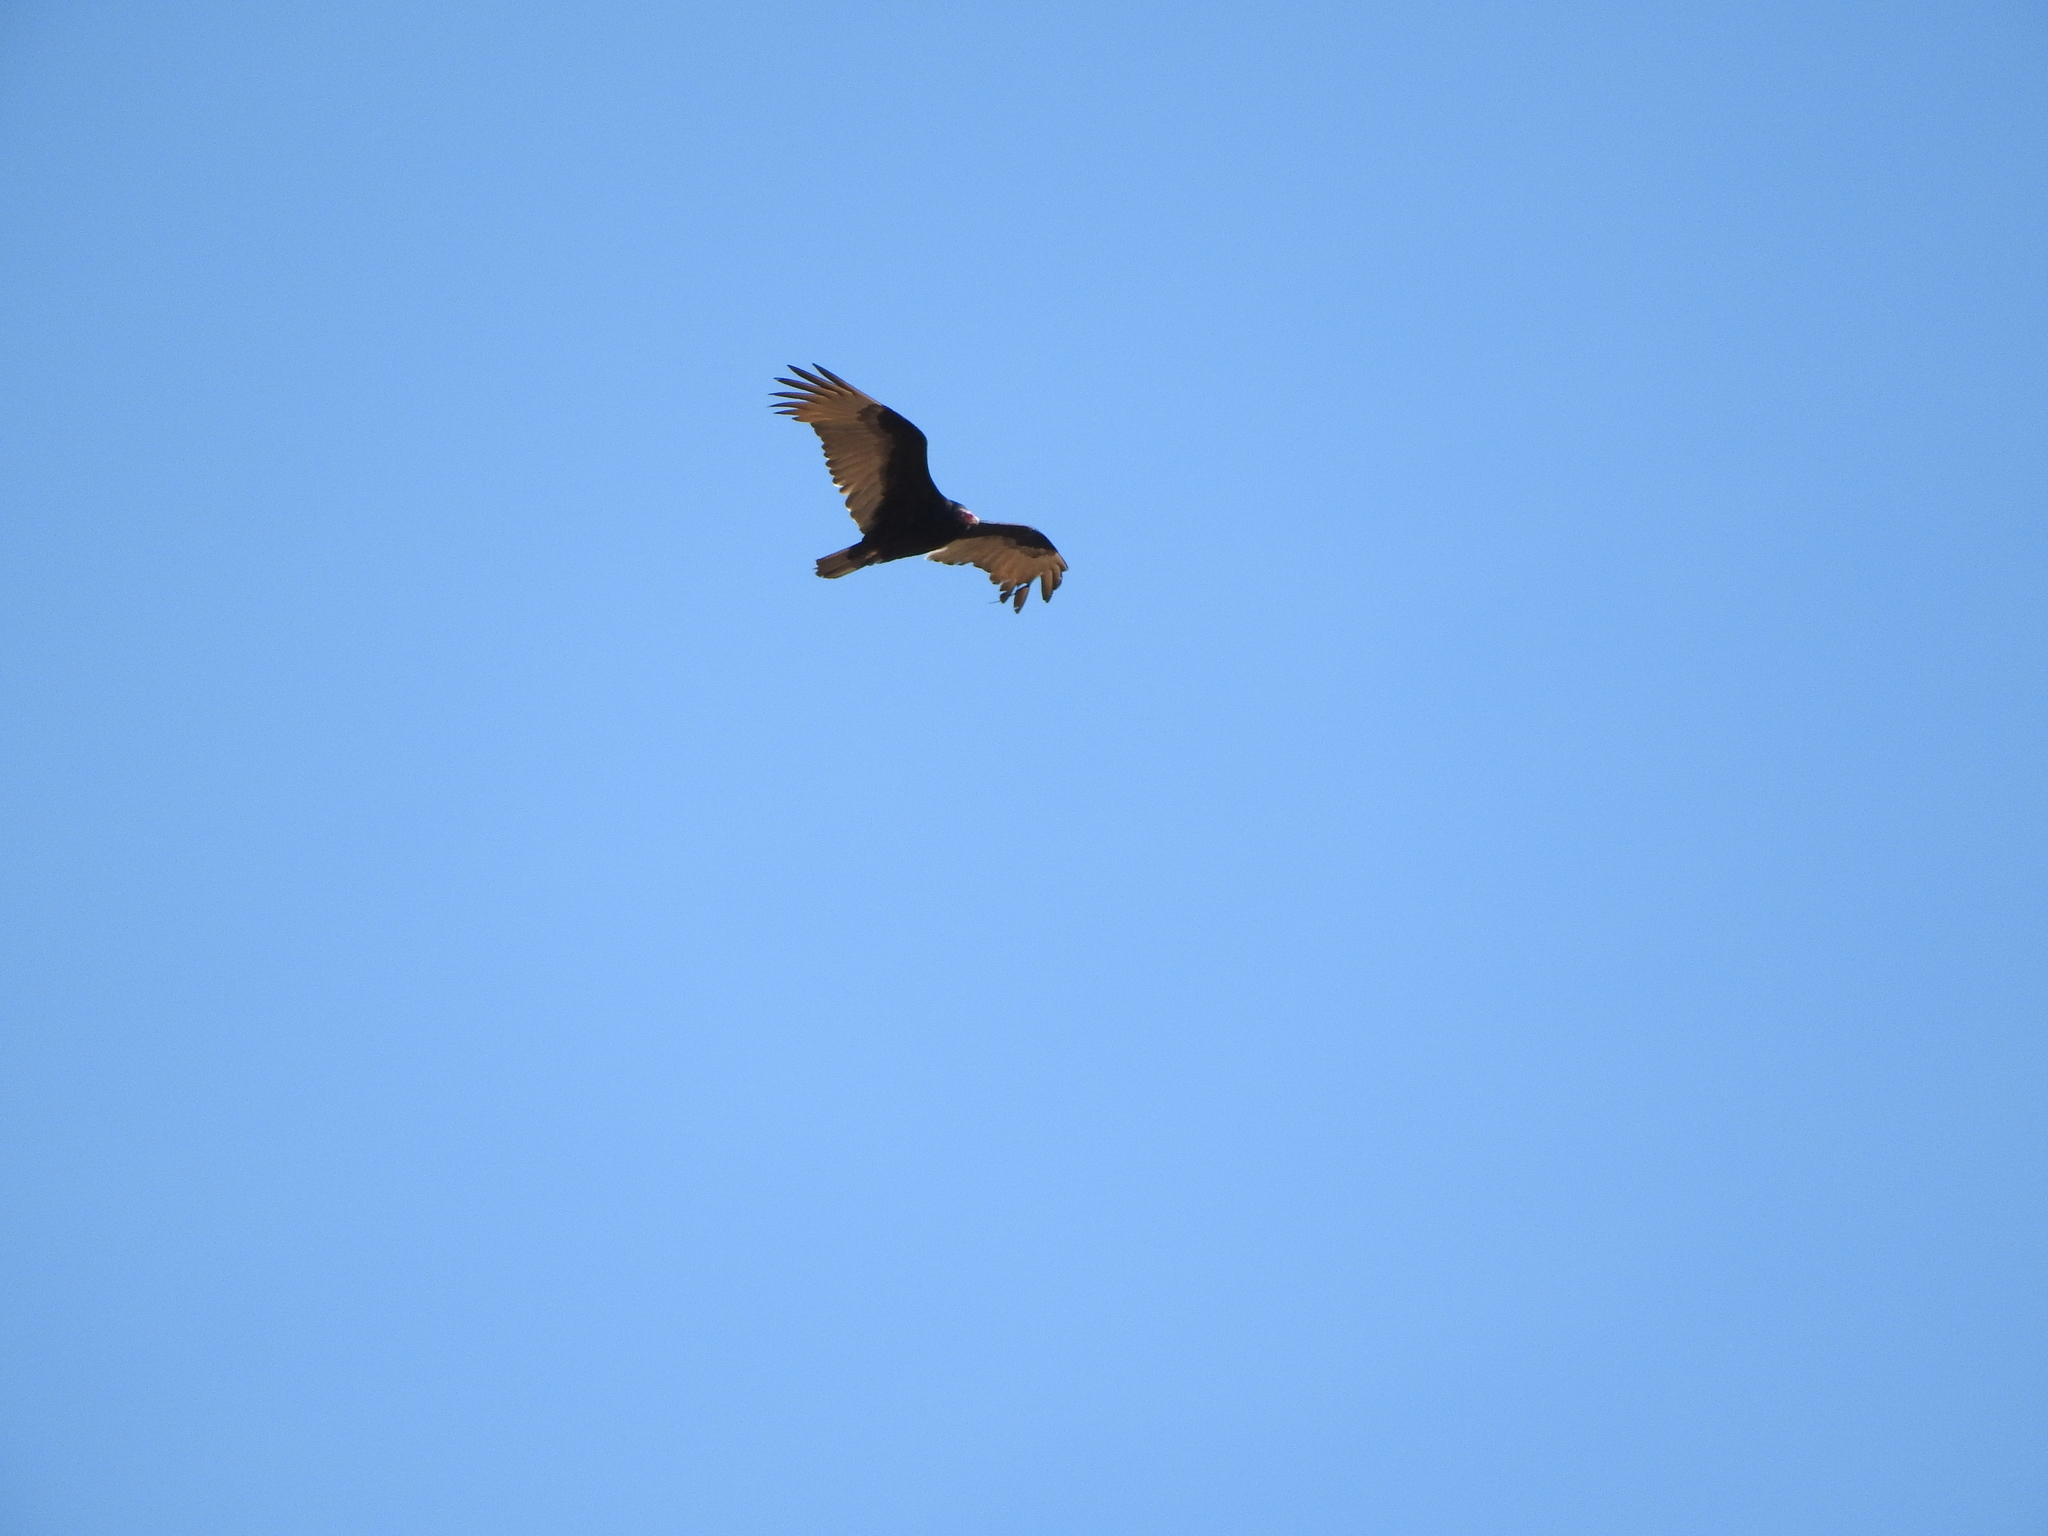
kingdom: Animalia
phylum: Chordata
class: Aves
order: Accipitriformes
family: Cathartidae
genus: Cathartes
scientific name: Cathartes aura
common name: Turkey vulture
